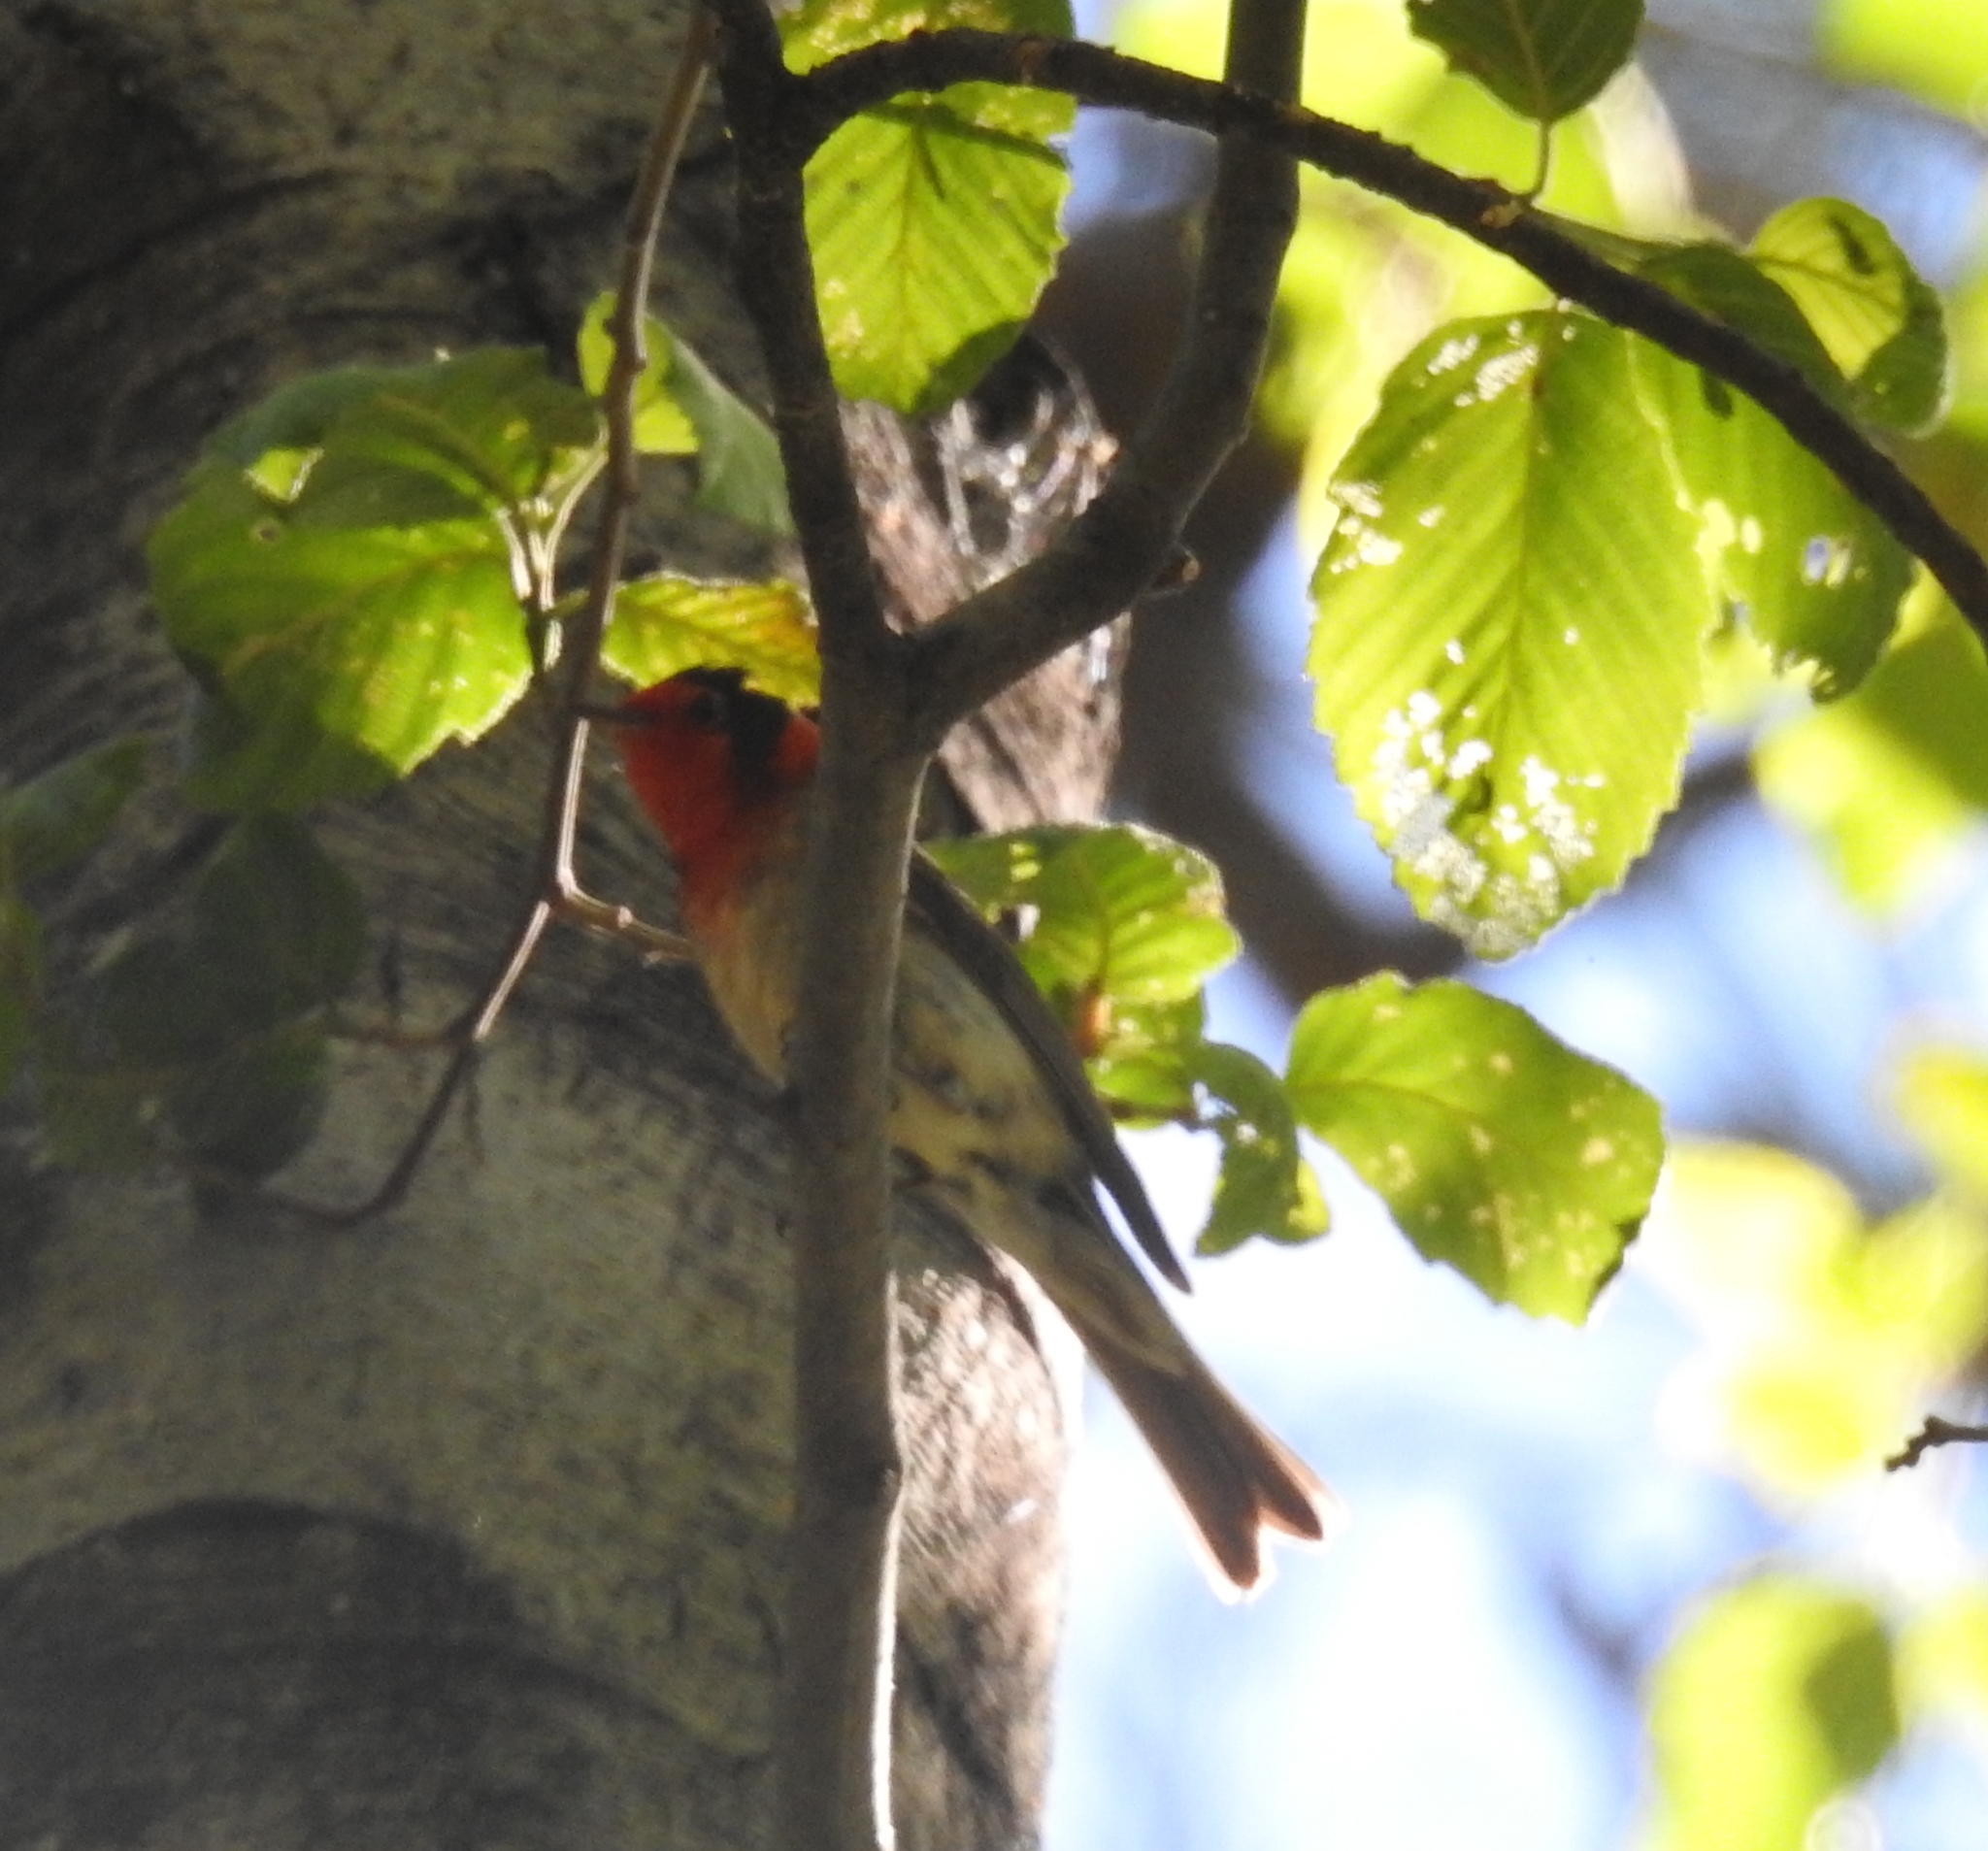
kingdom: Animalia
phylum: Chordata
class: Aves
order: Passeriformes
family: Parulidae
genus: Cardellina
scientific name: Cardellina rubrifrons
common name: Red-faced warbler
